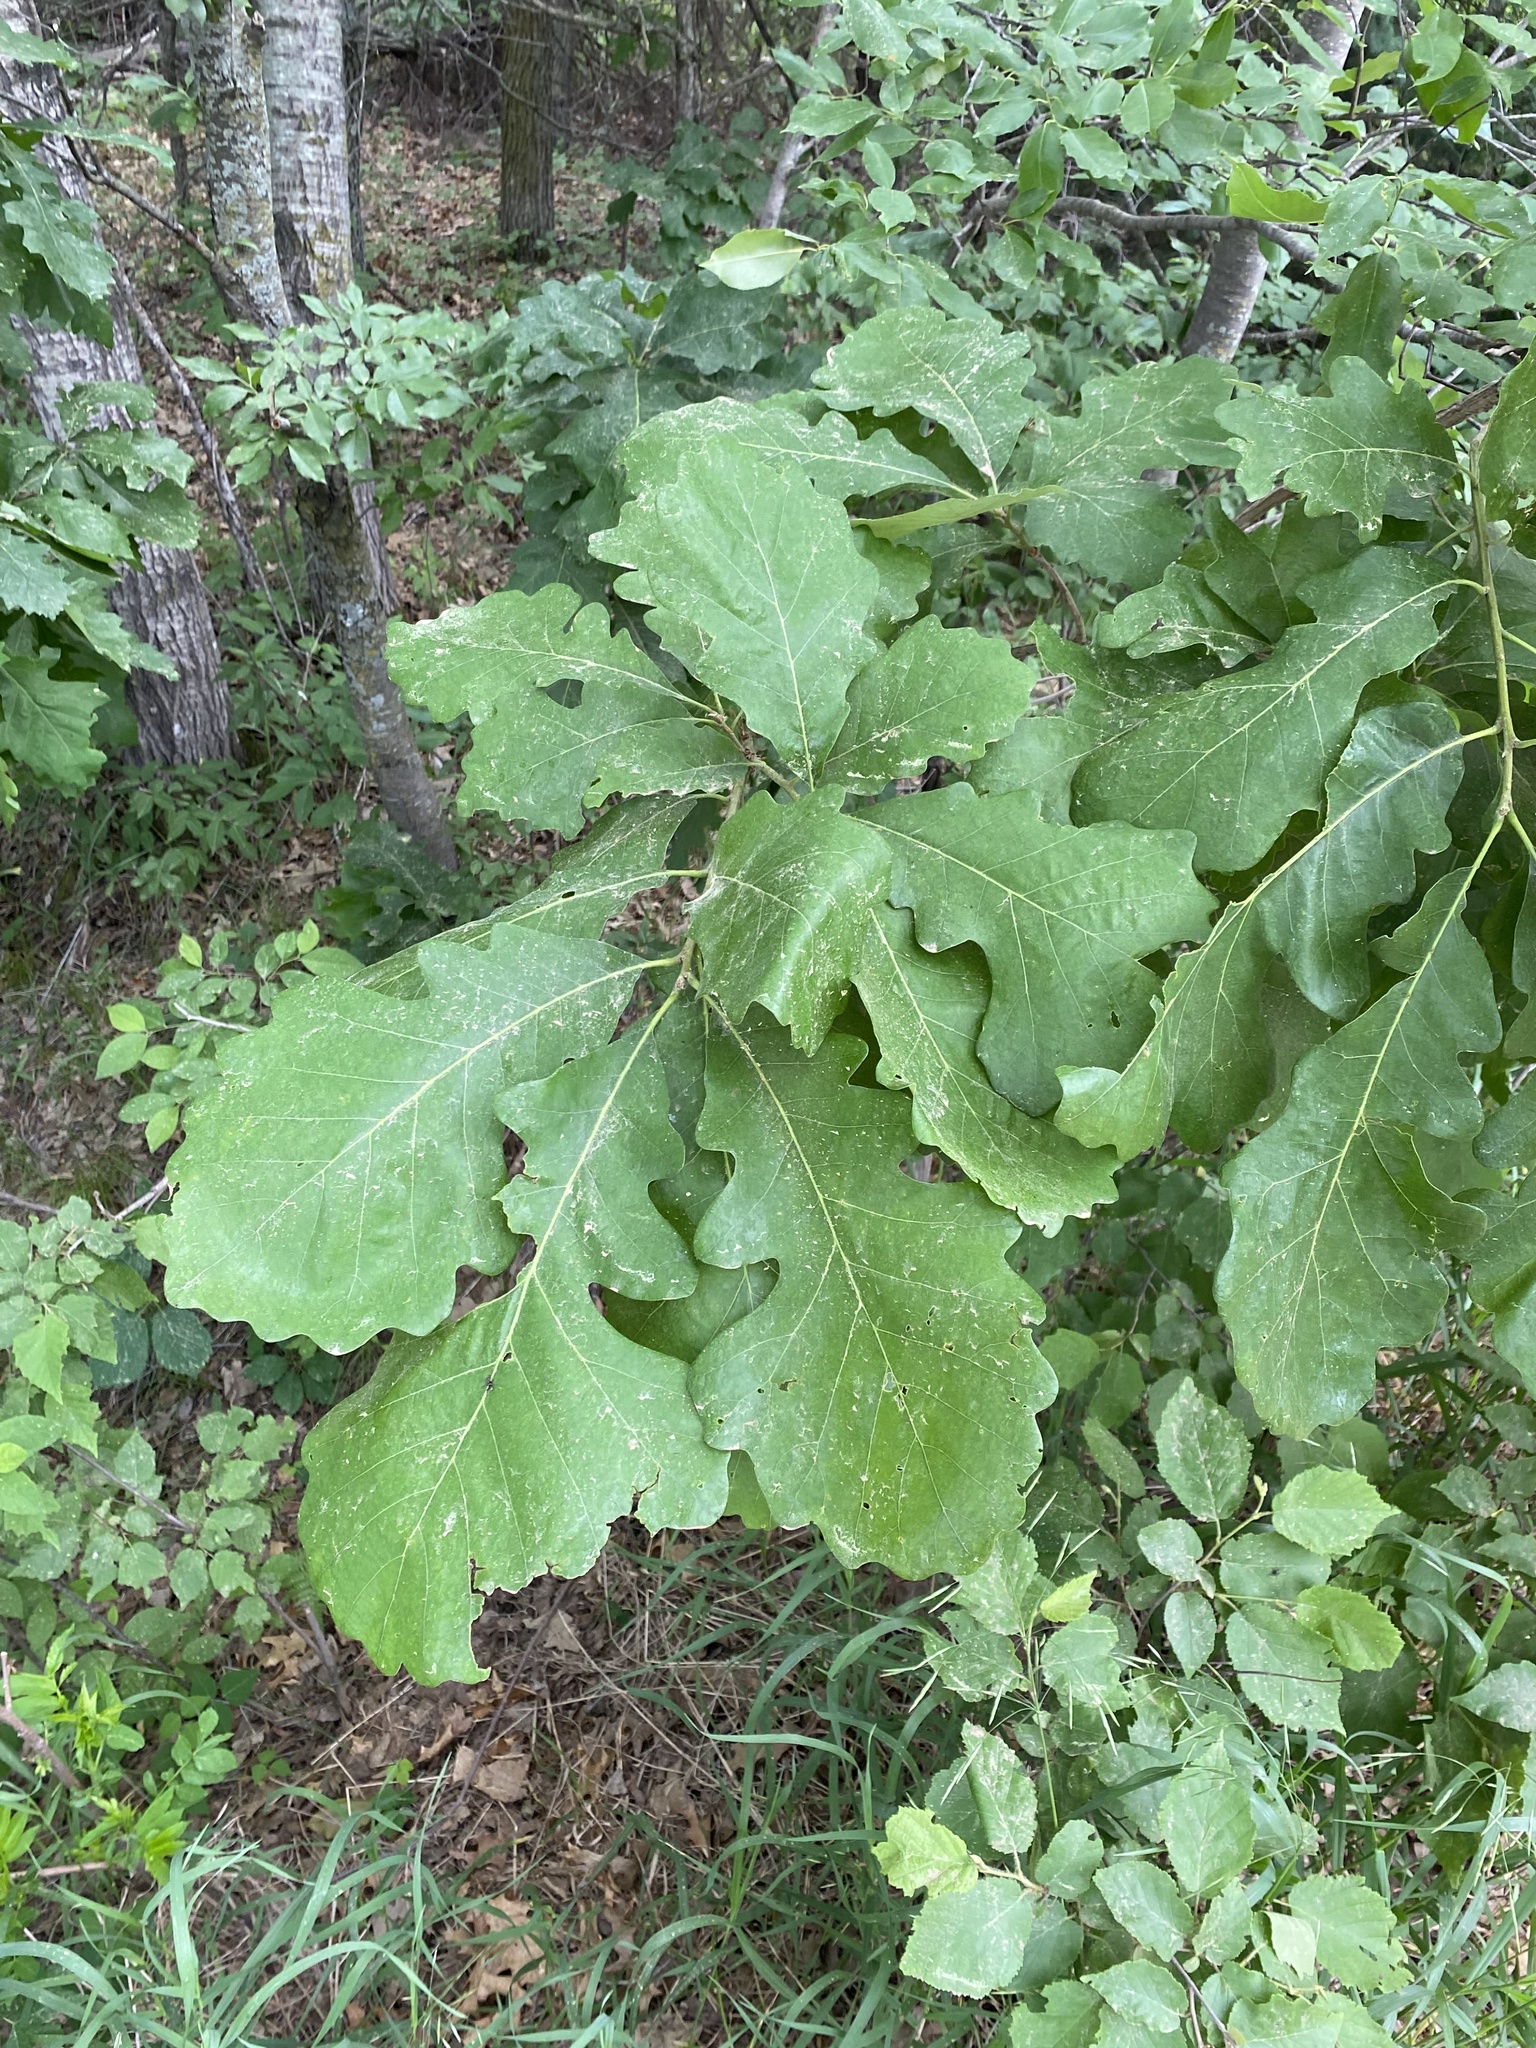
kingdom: Plantae
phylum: Tracheophyta
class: Magnoliopsida
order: Fagales
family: Fagaceae
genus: Quercus
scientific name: Quercus macrocarpa
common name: Bur oak
